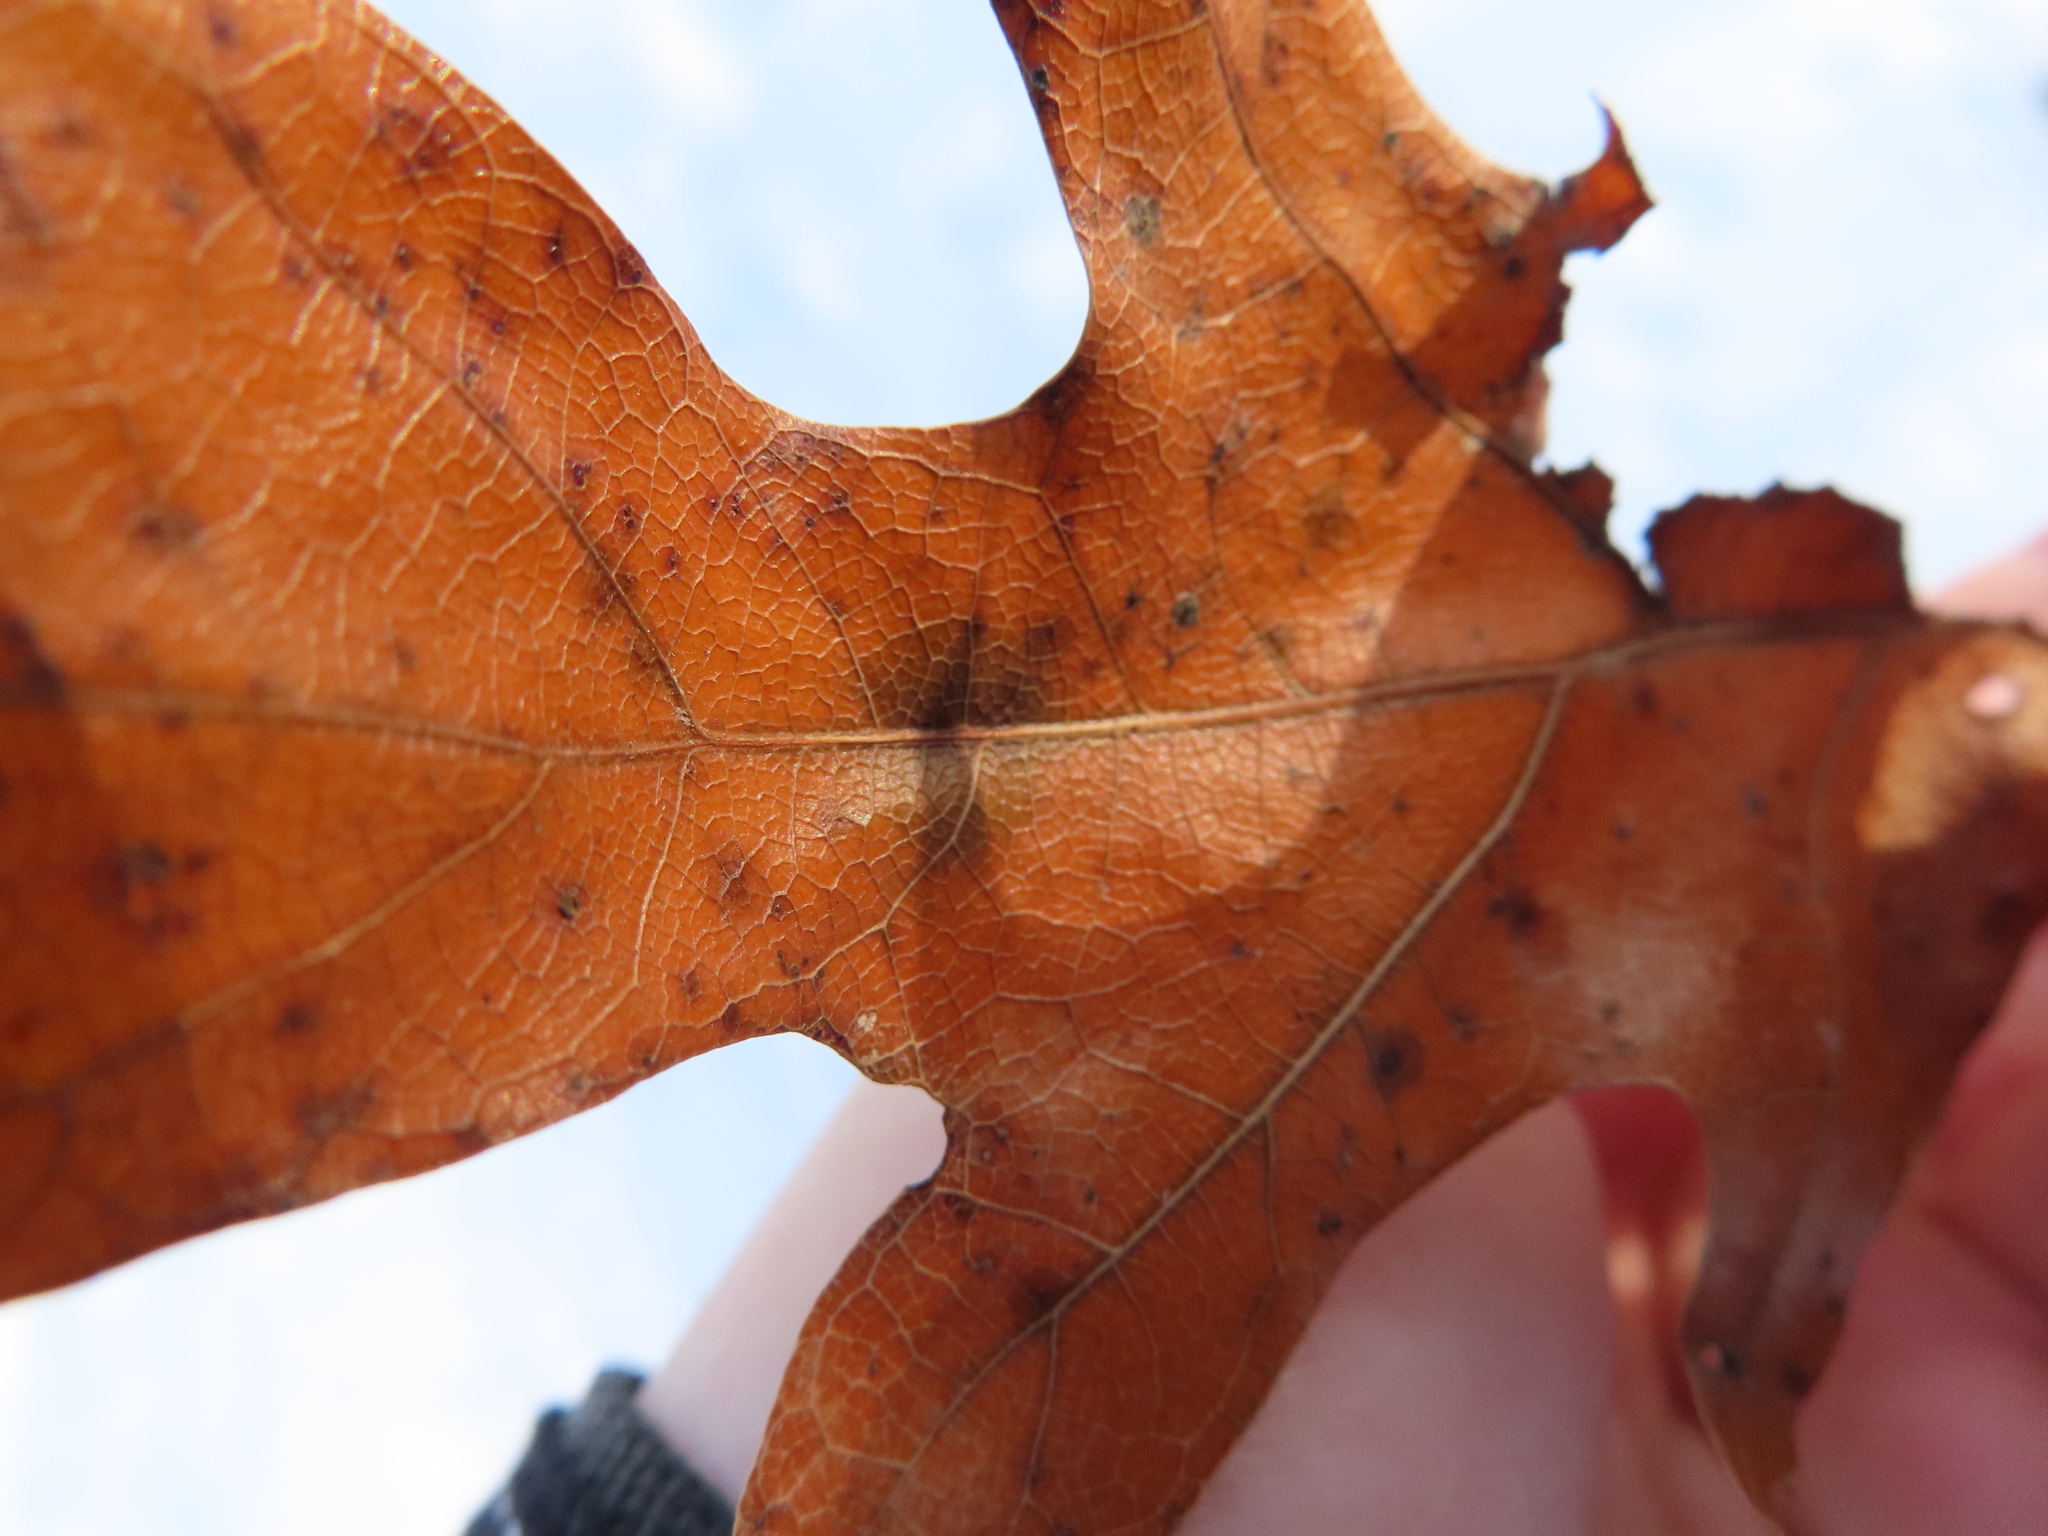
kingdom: Animalia
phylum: Arthropoda
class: Insecta
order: Hymenoptera
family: Cynipidae
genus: Callirhytis
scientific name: Callirhytis
